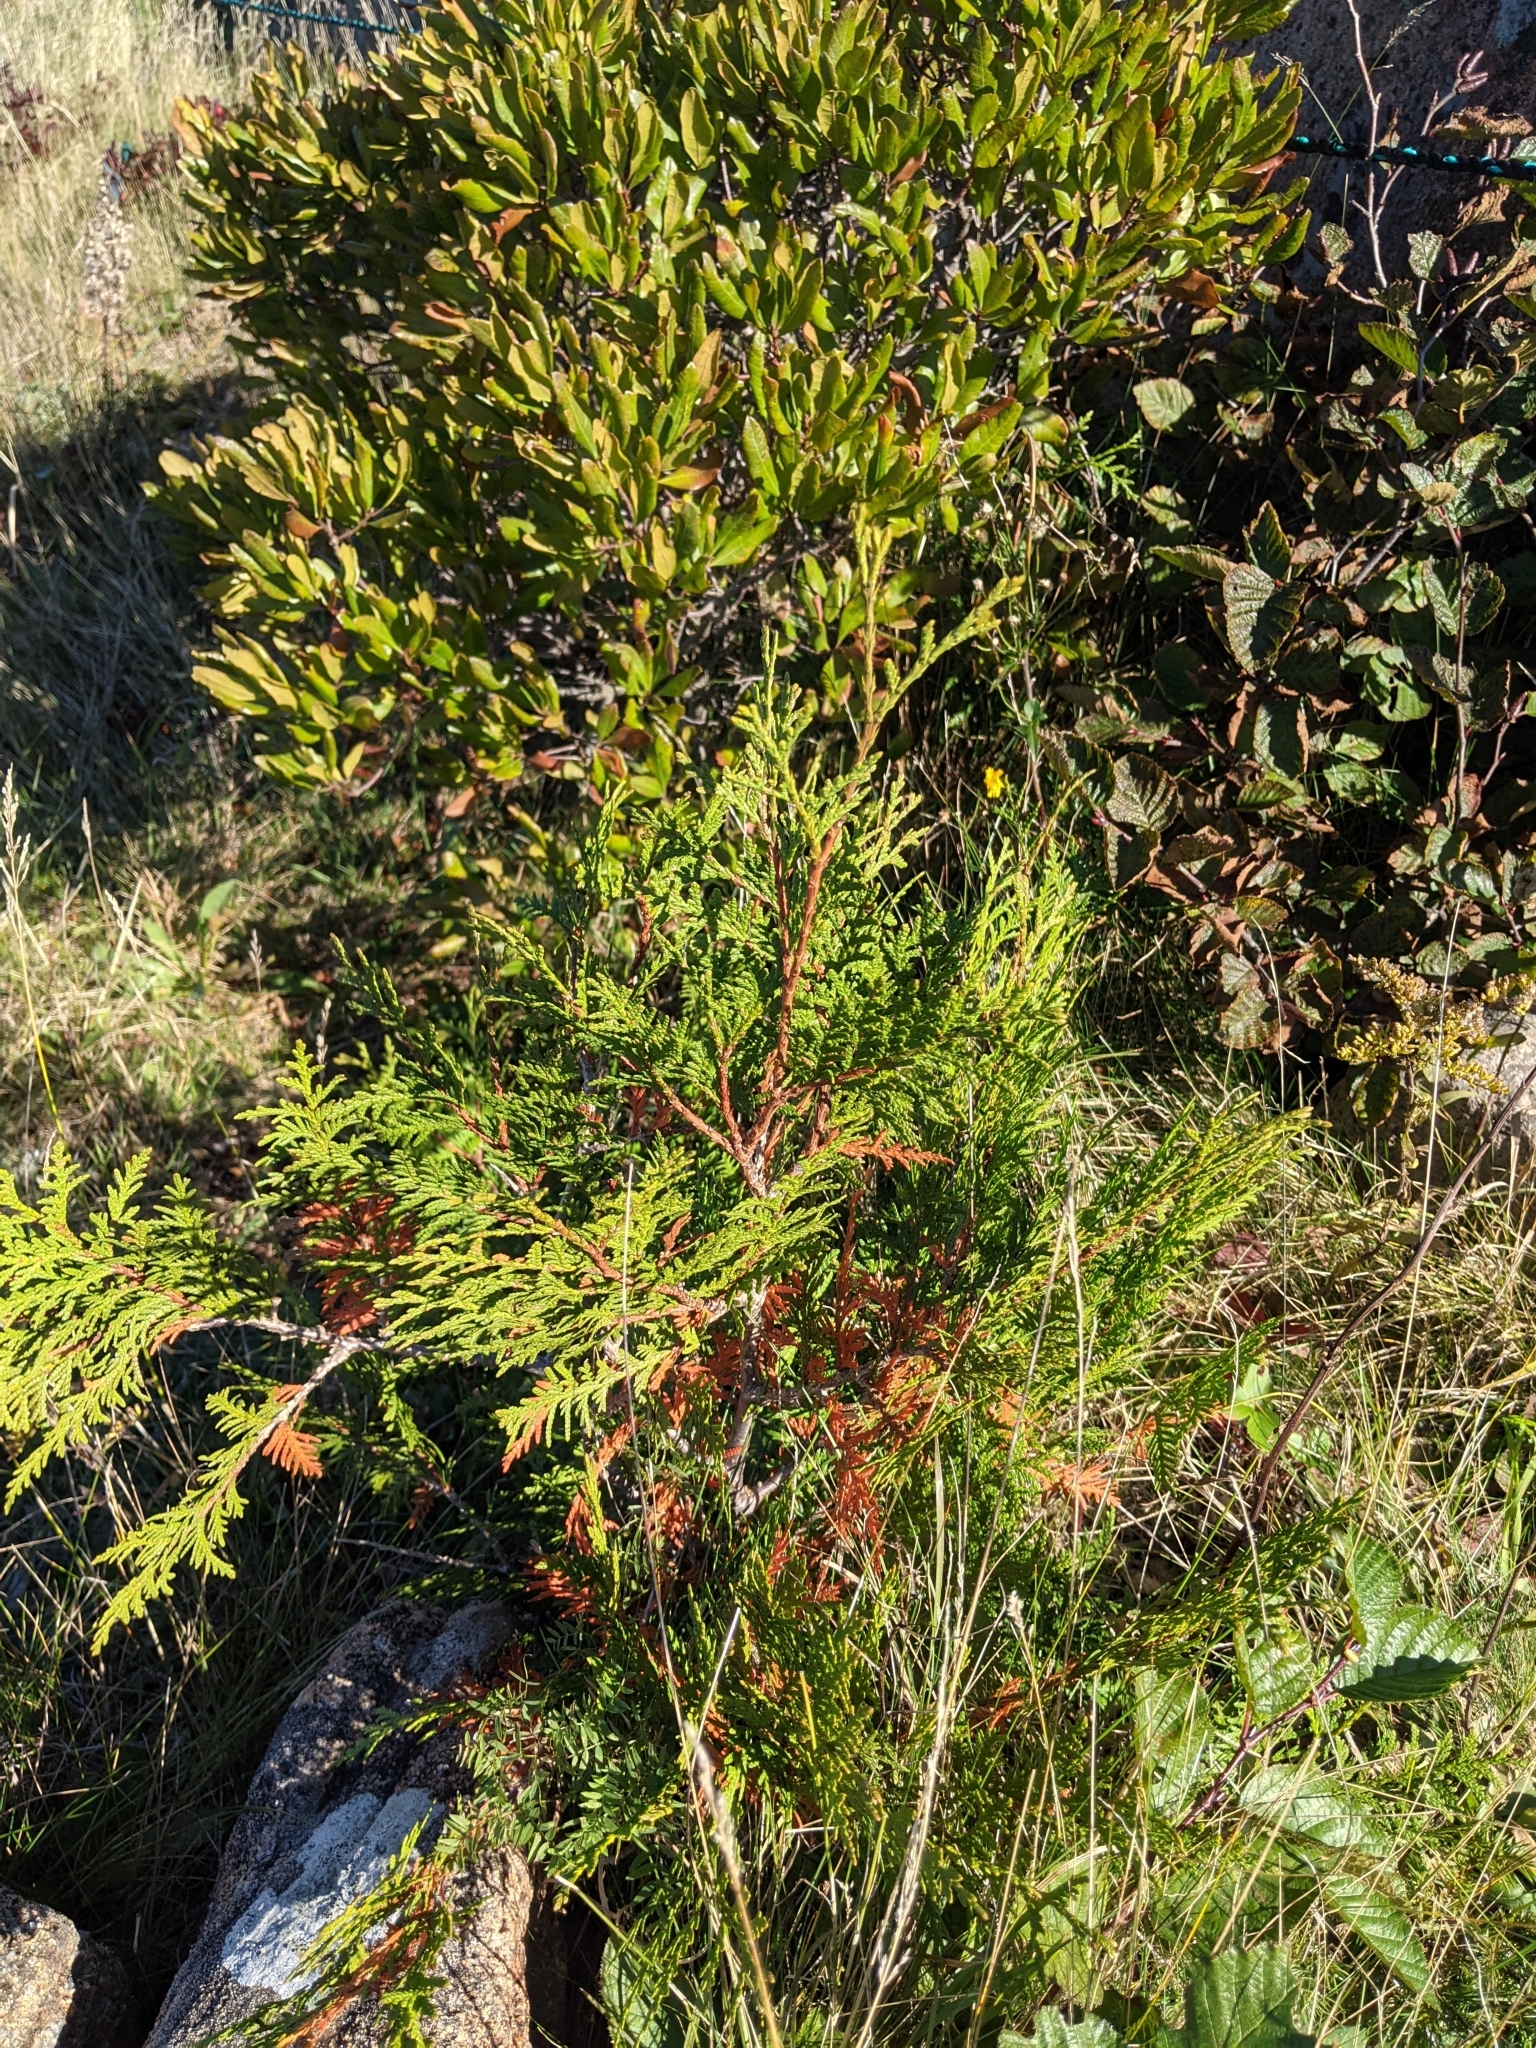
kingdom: Plantae
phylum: Tracheophyta
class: Pinopsida
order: Pinales
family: Cupressaceae
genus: Thuja
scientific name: Thuja occidentalis
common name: Northern white-cedar
